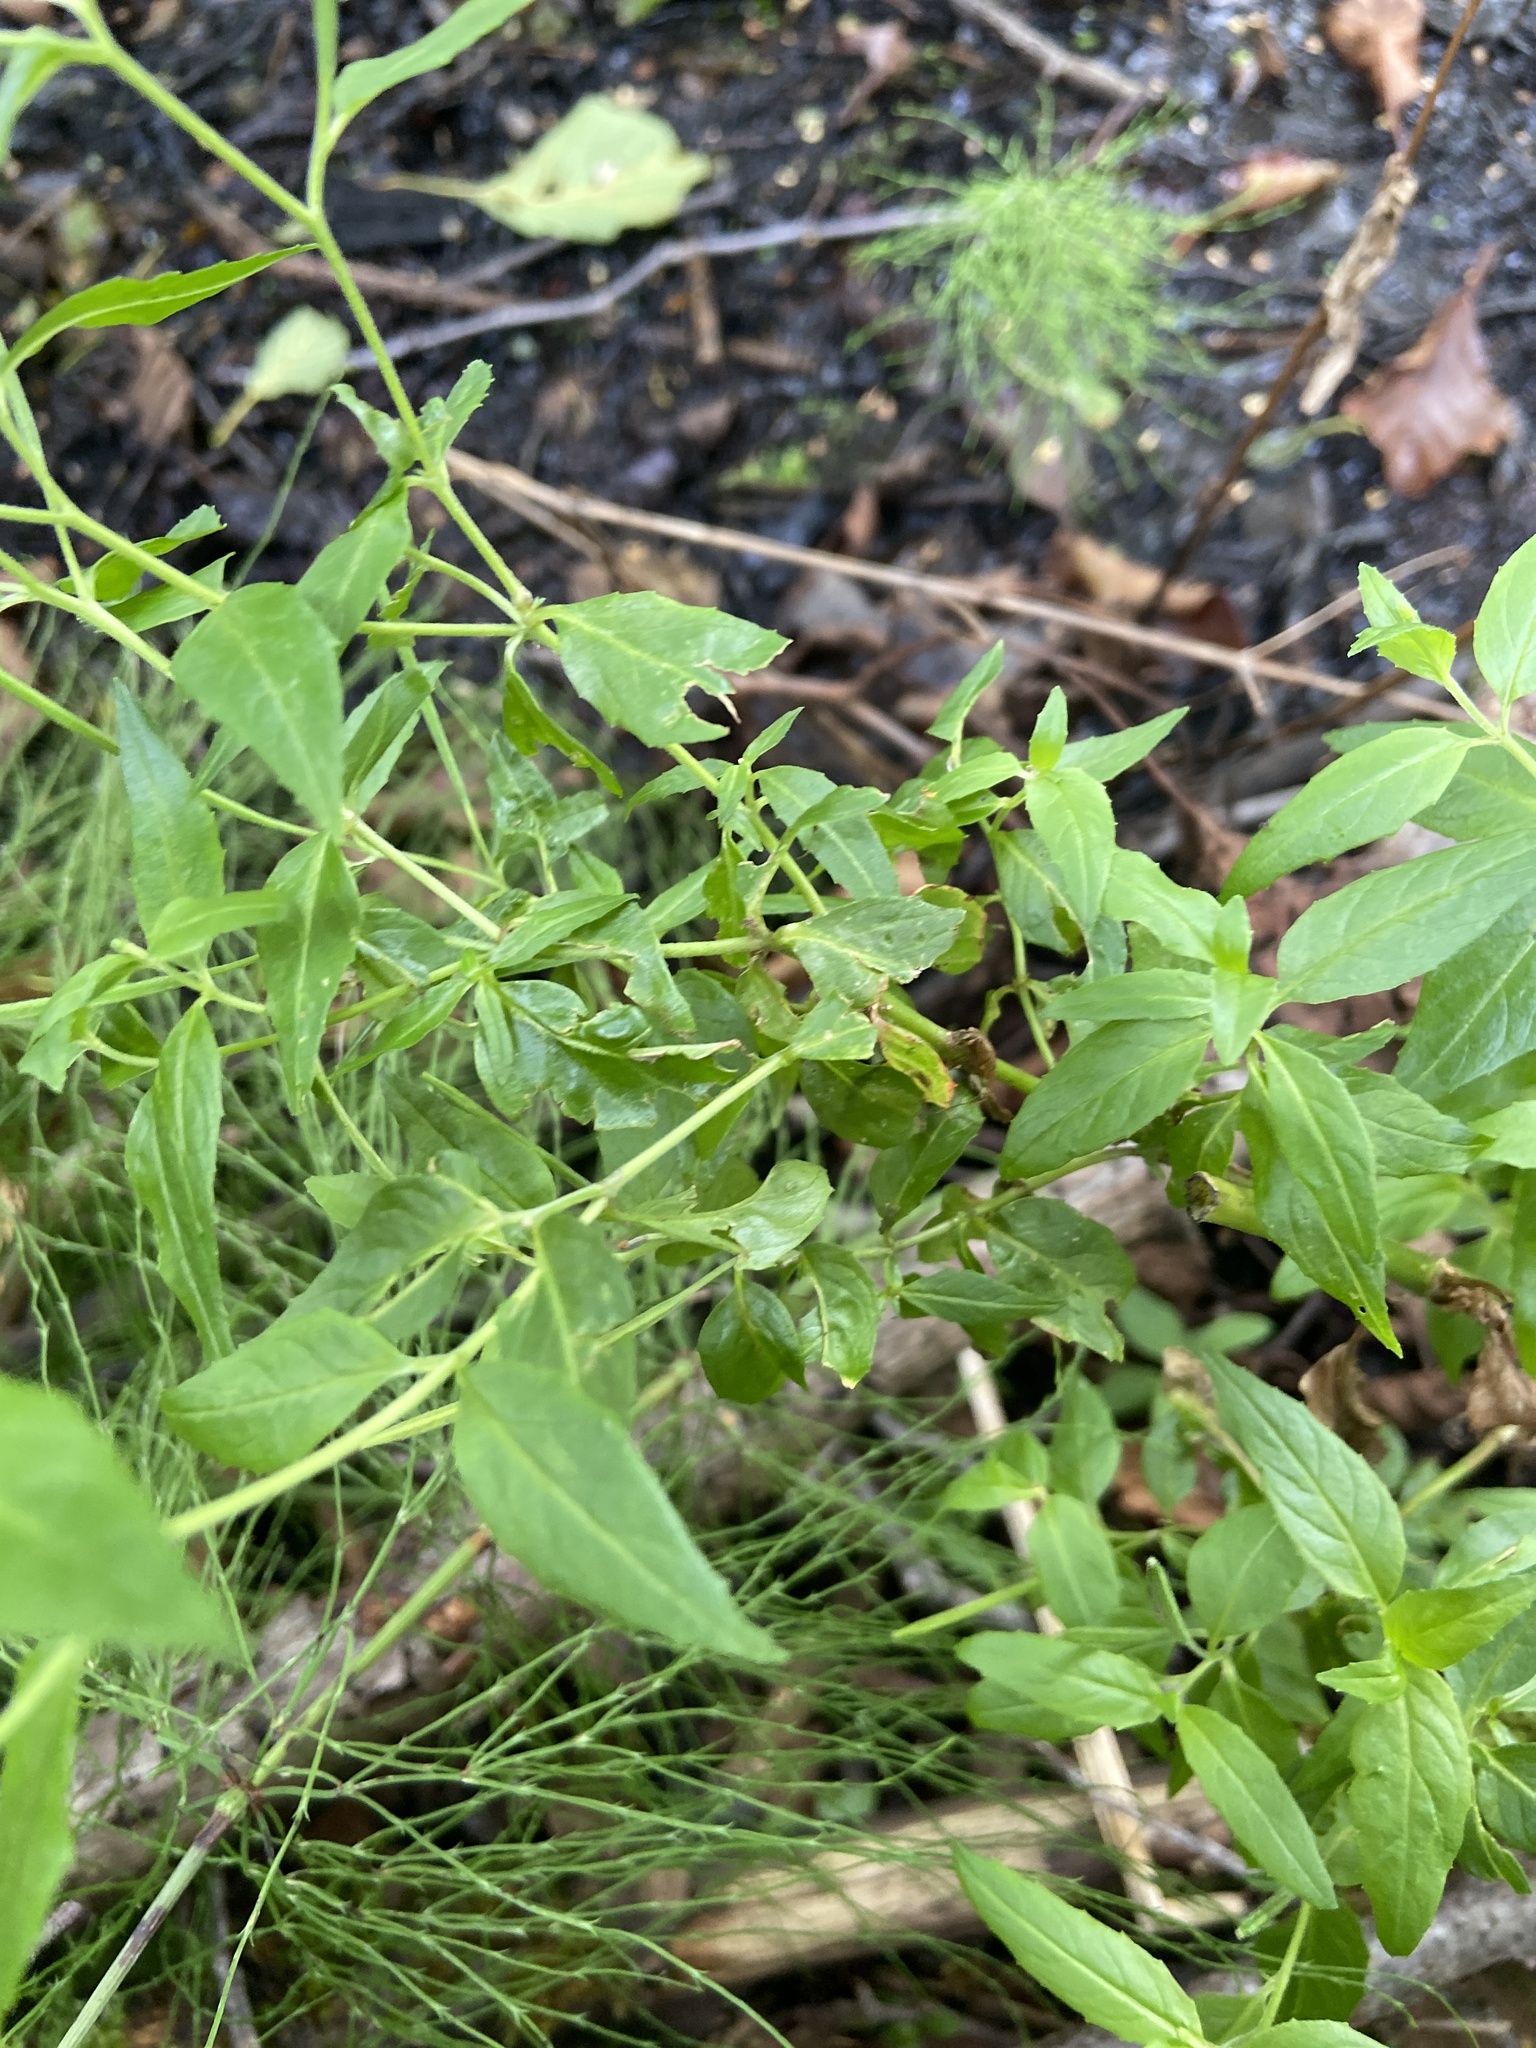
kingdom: Plantae
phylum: Tracheophyta
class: Magnoliopsida
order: Lamiales
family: Lamiaceae
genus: Scutellaria
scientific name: Scutellaria galericulata
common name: Skullcap
